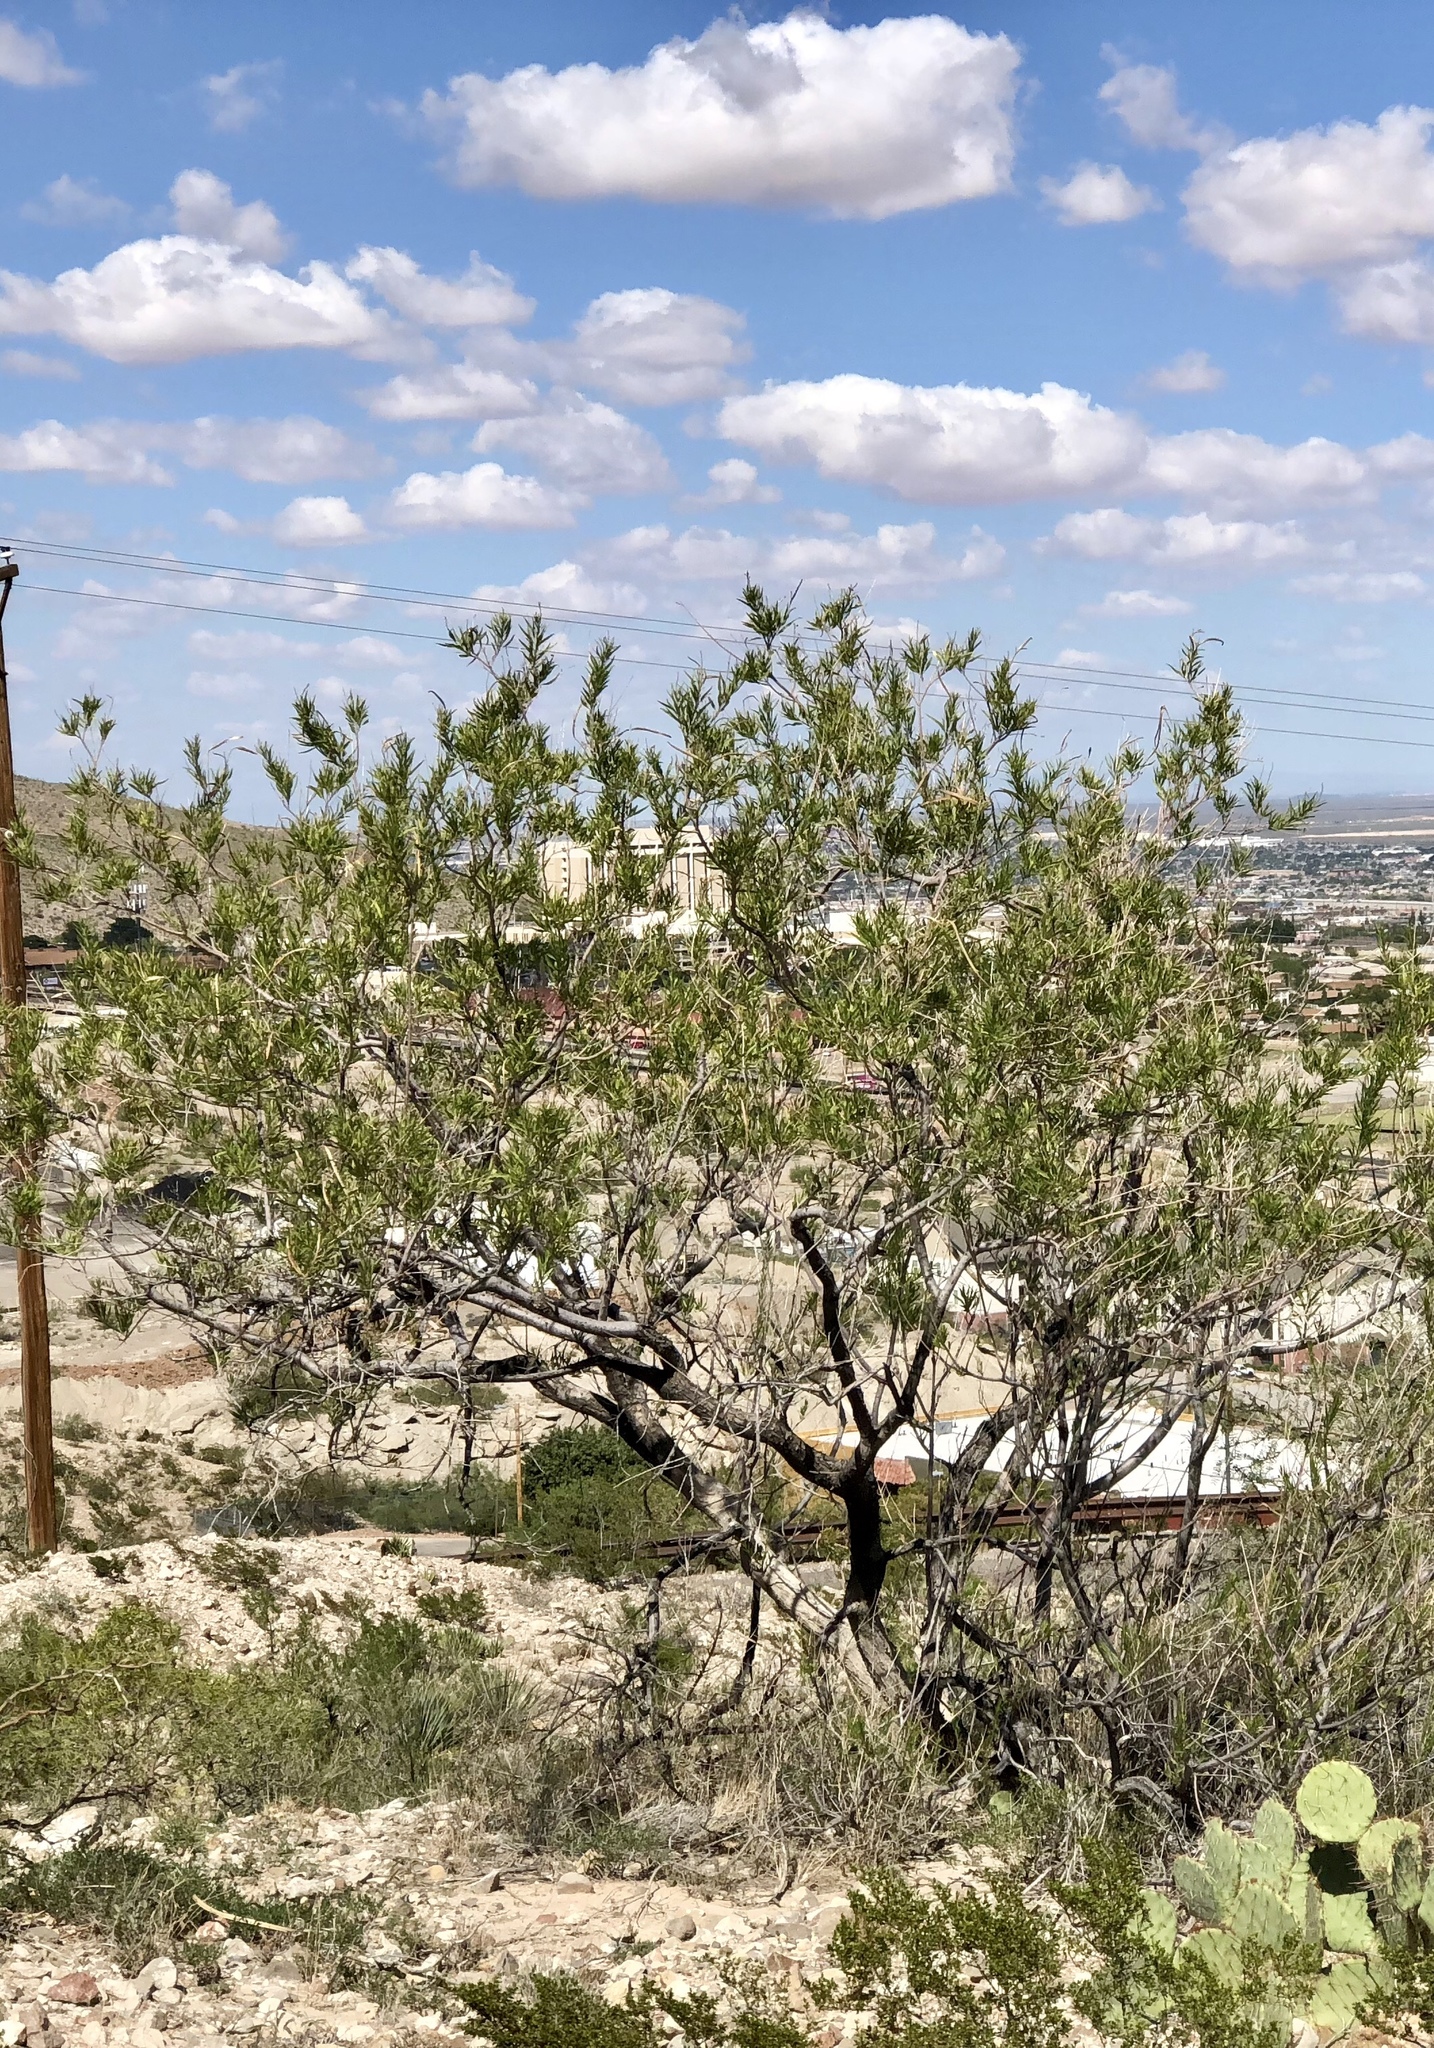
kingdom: Plantae
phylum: Tracheophyta
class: Magnoliopsida
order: Lamiales
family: Bignoniaceae
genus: Chilopsis
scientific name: Chilopsis linearis
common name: Desert-willow
